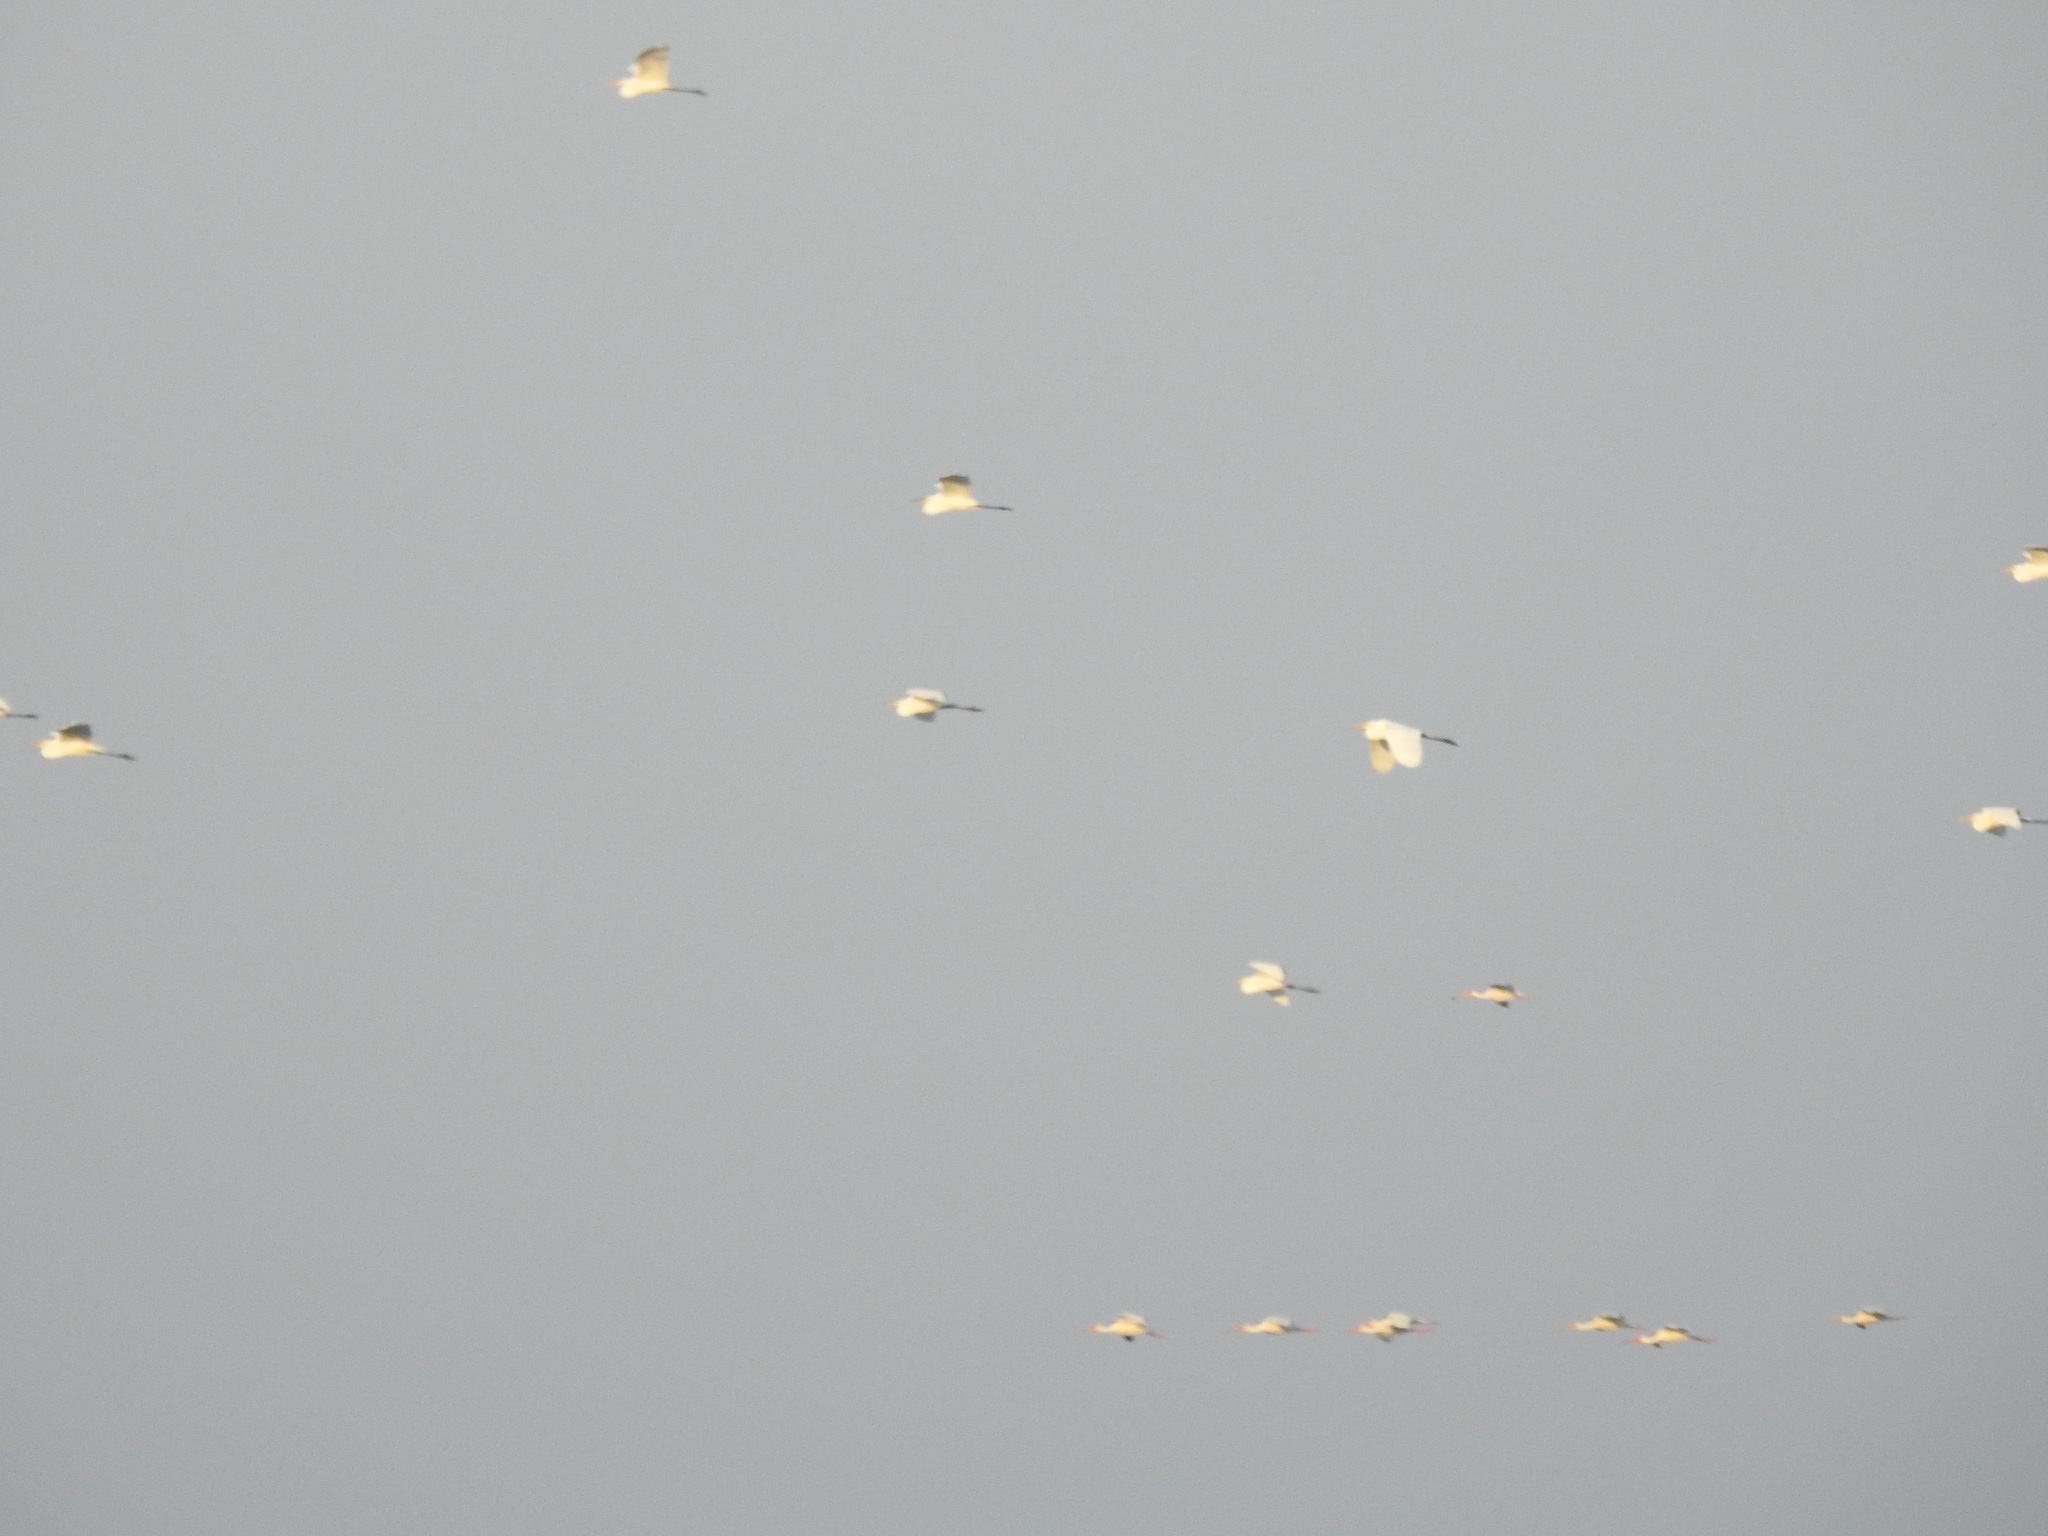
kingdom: Animalia
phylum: Chordata
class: Aves
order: Pelecaniformes
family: Ardeidae
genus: Ardea
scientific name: Ardea alba
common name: Great egret
